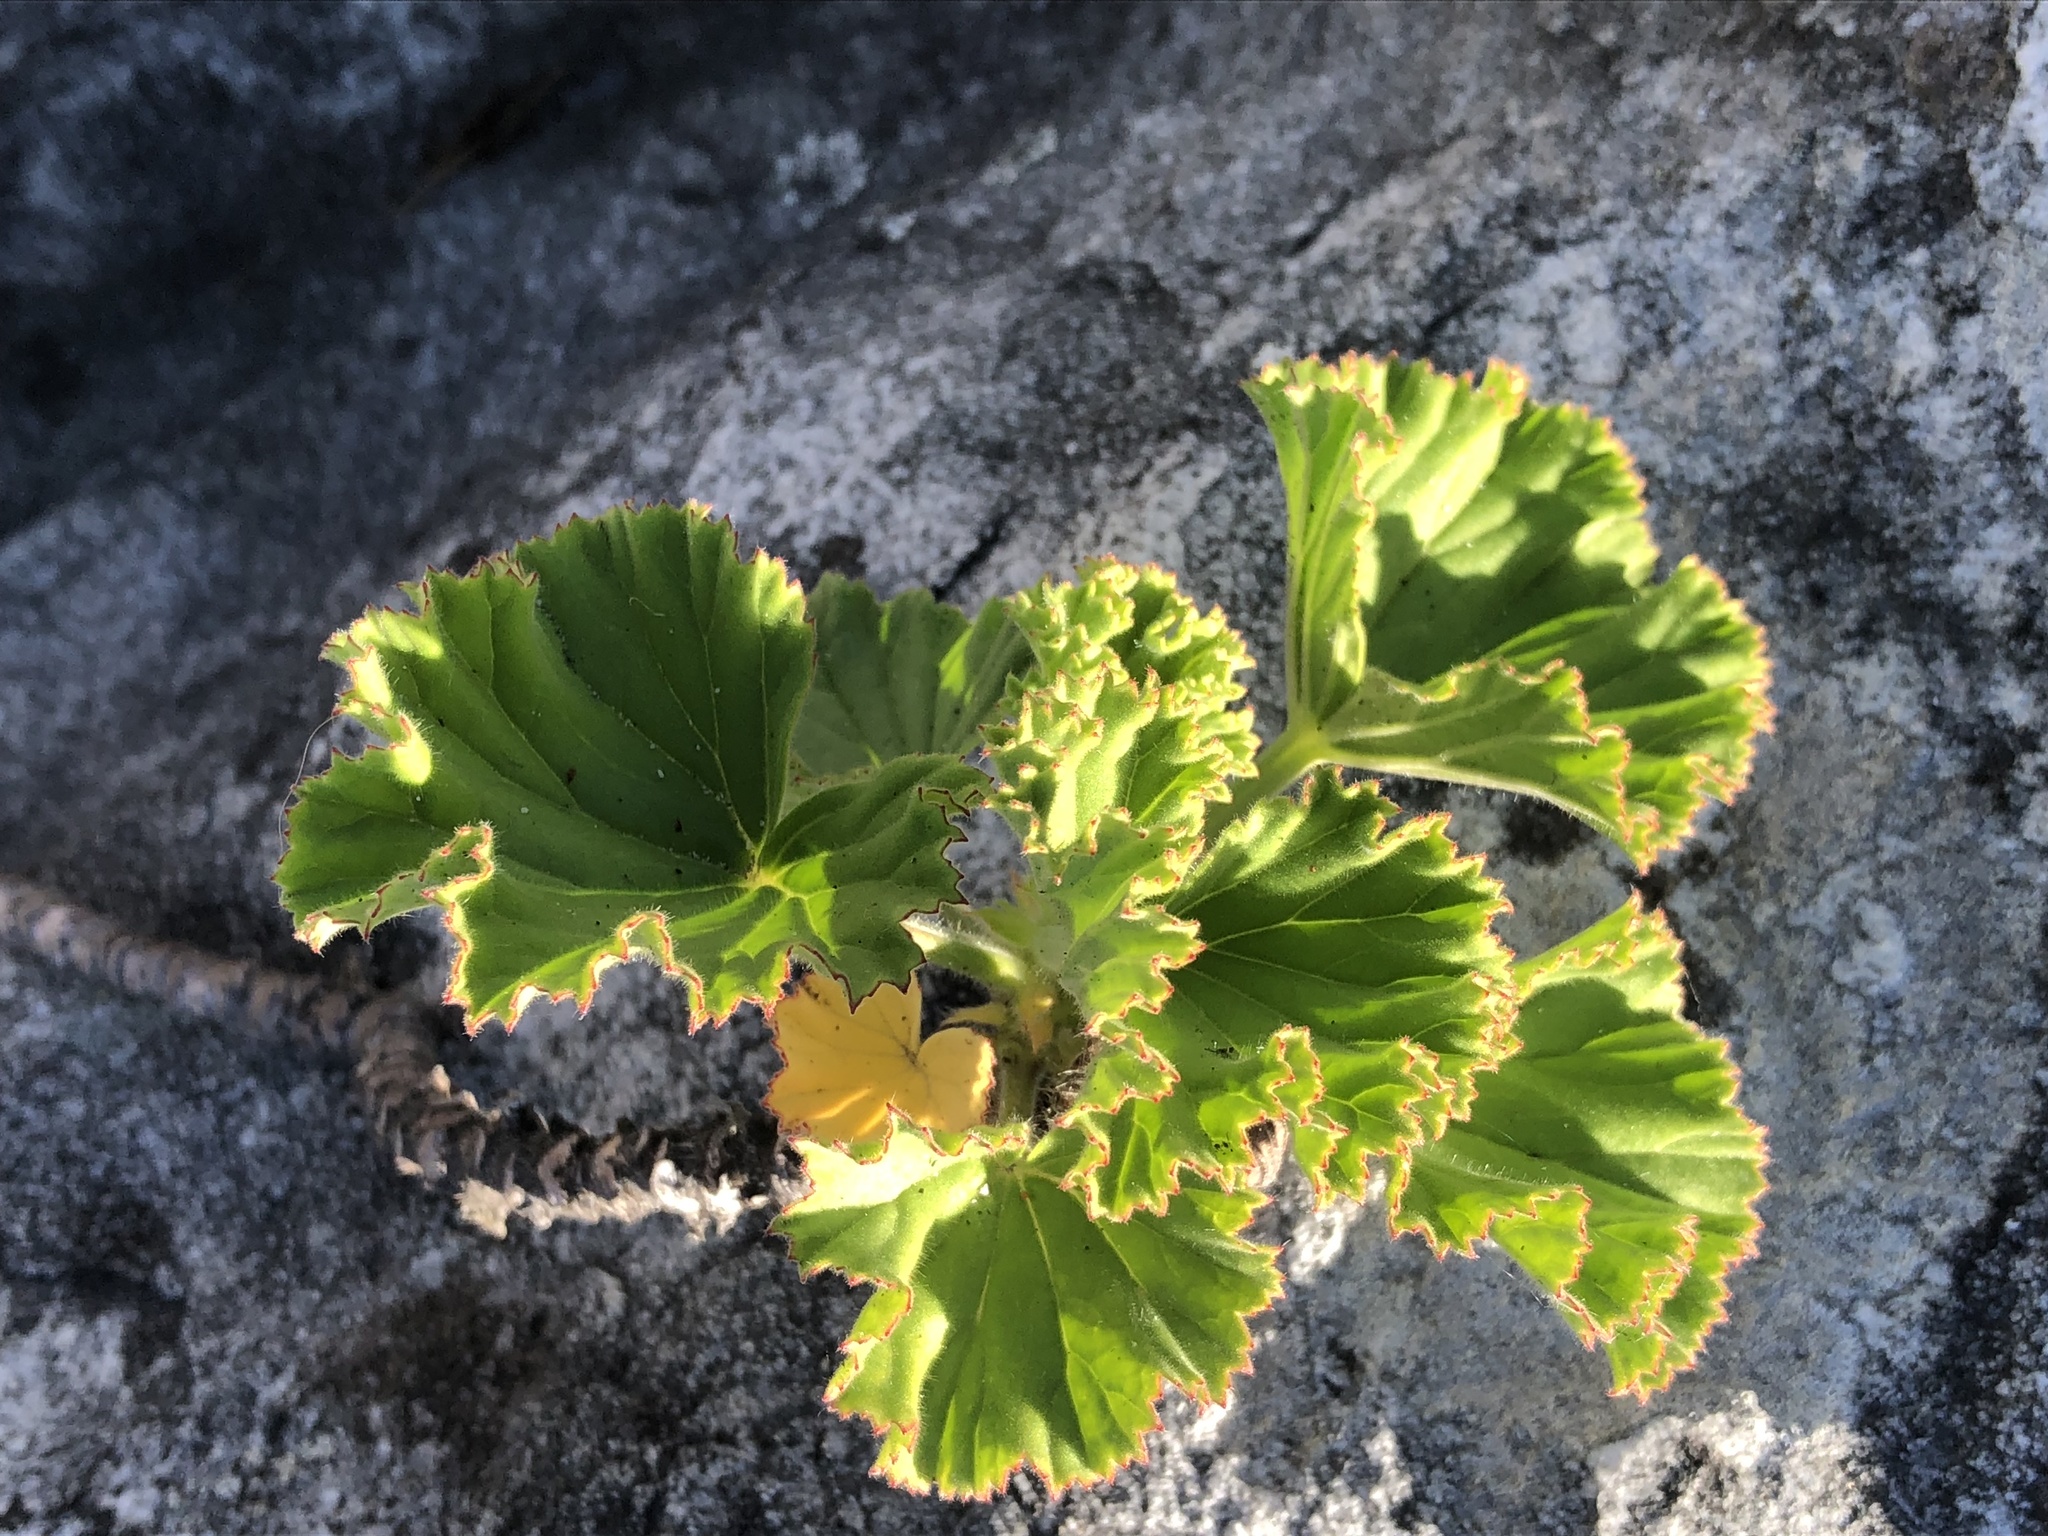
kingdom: Plantae
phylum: Tracheophyta
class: Magnoliopsida
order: Geraniales
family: Geraniaceae
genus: Pelargonium
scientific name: Pelargonium cucullatum
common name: Tree pelargonium
